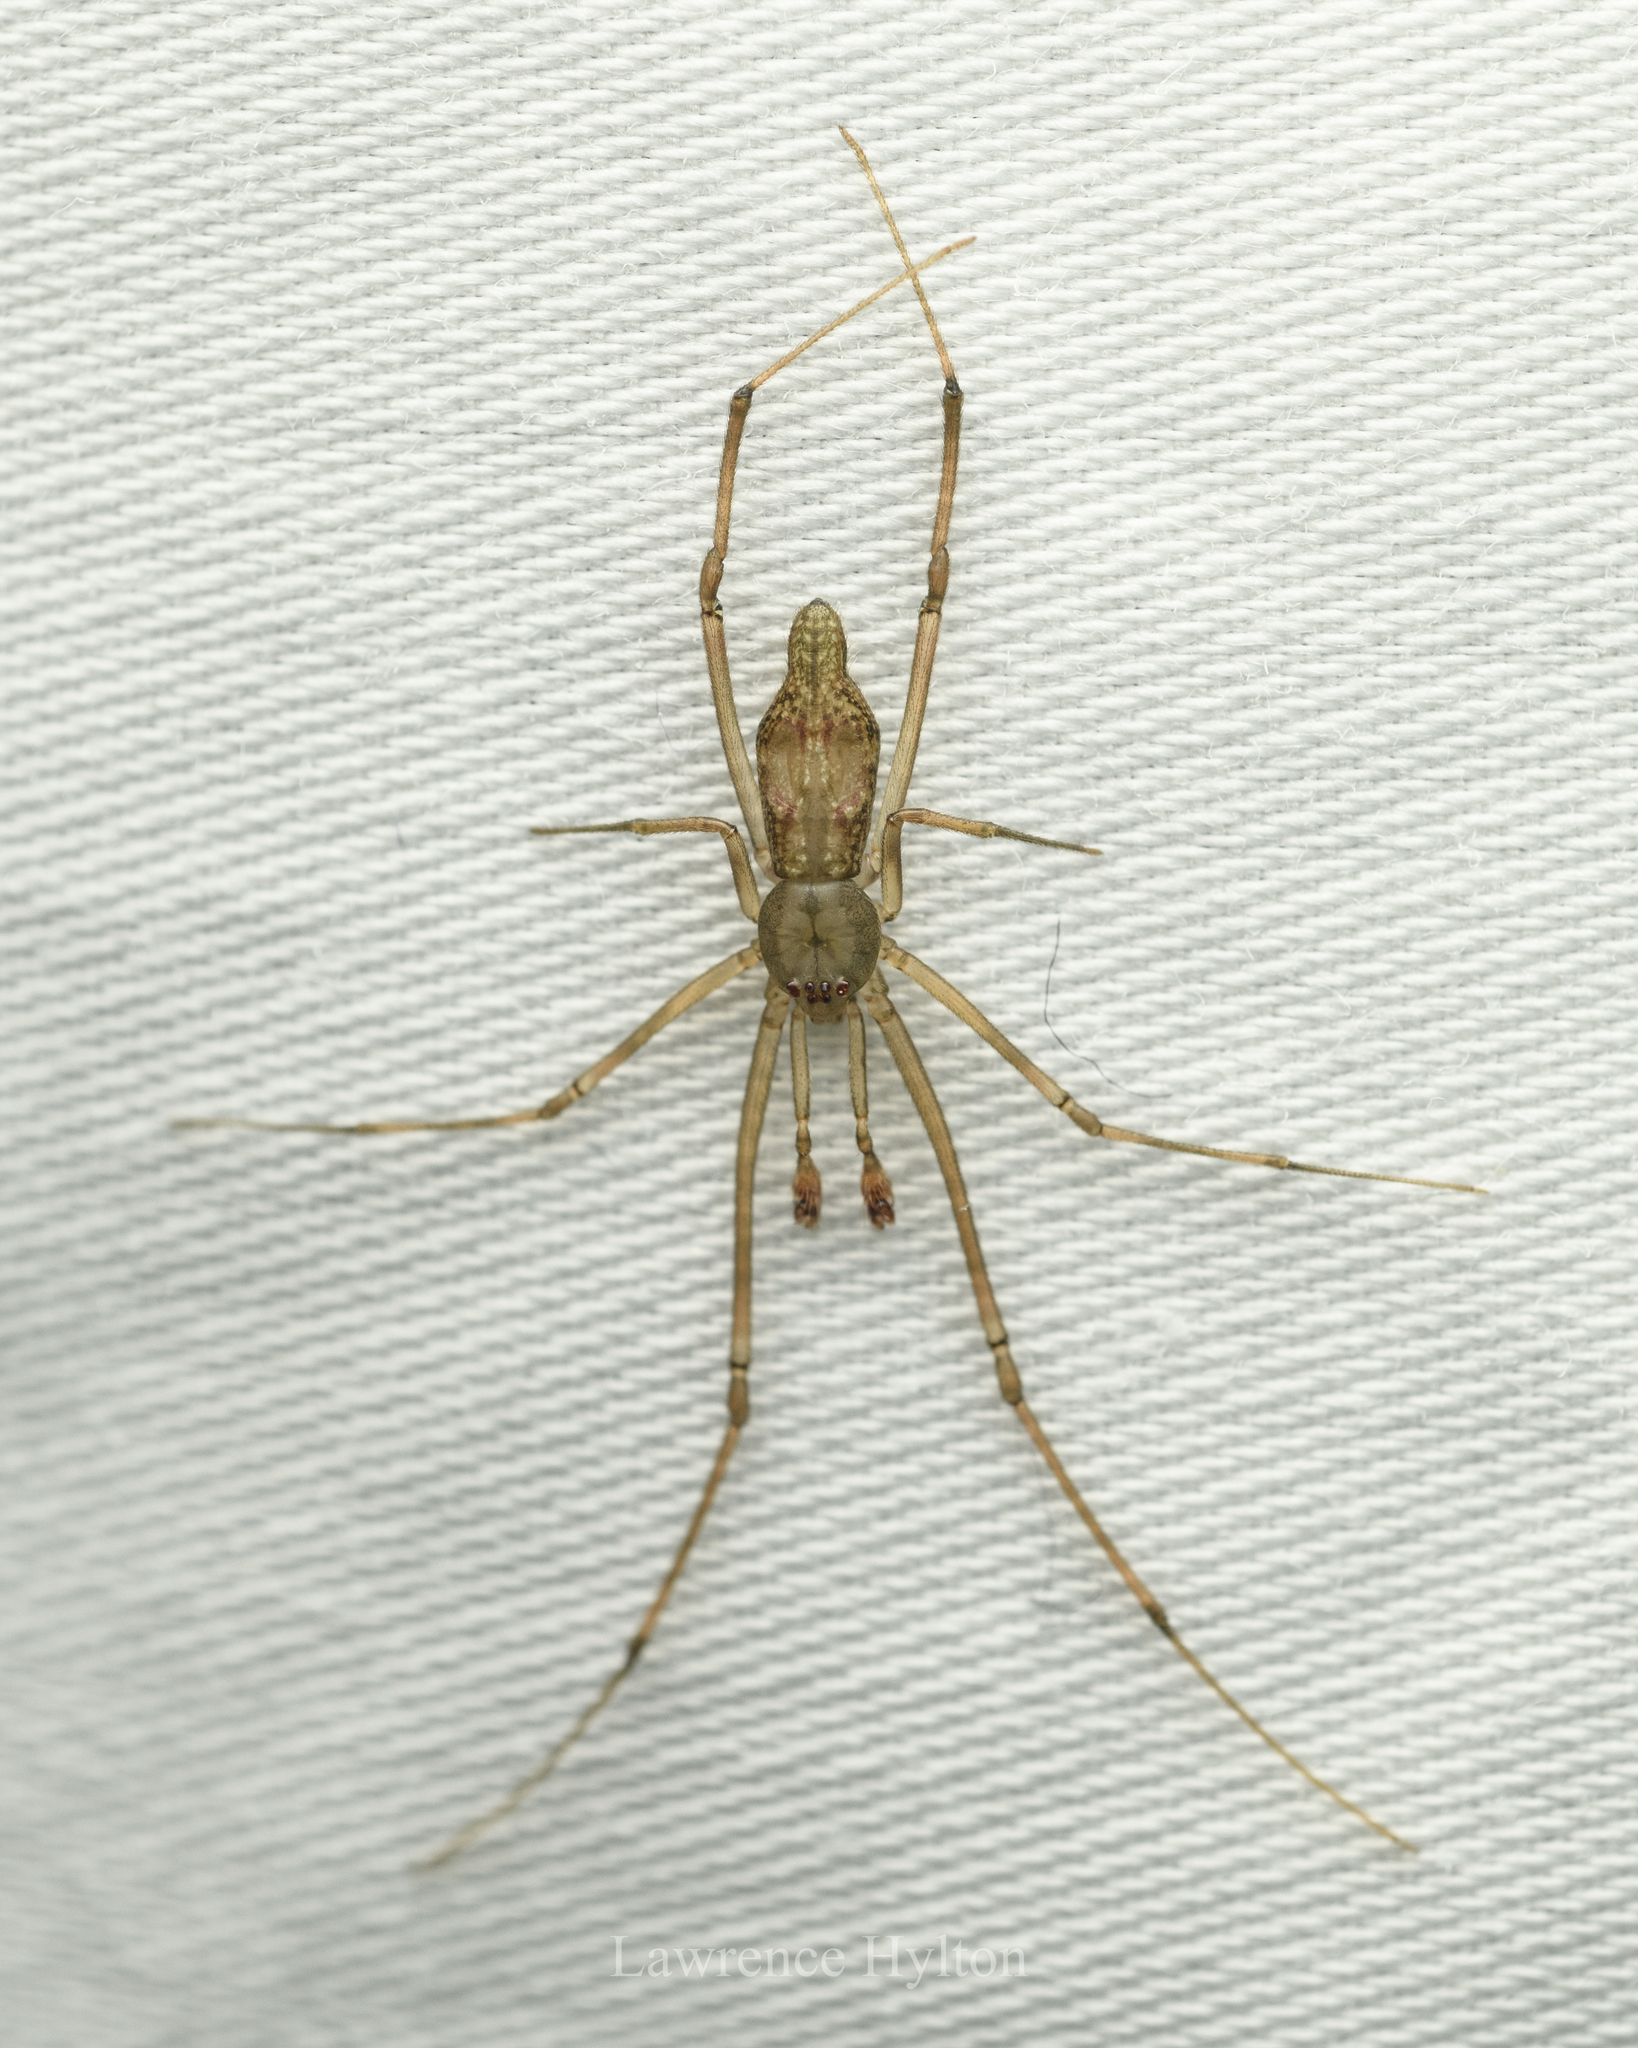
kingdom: Animalia
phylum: Arthropoda
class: Arachnida
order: Araneae
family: Theridiidae
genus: Moneta
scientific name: Moneta mirabilis
